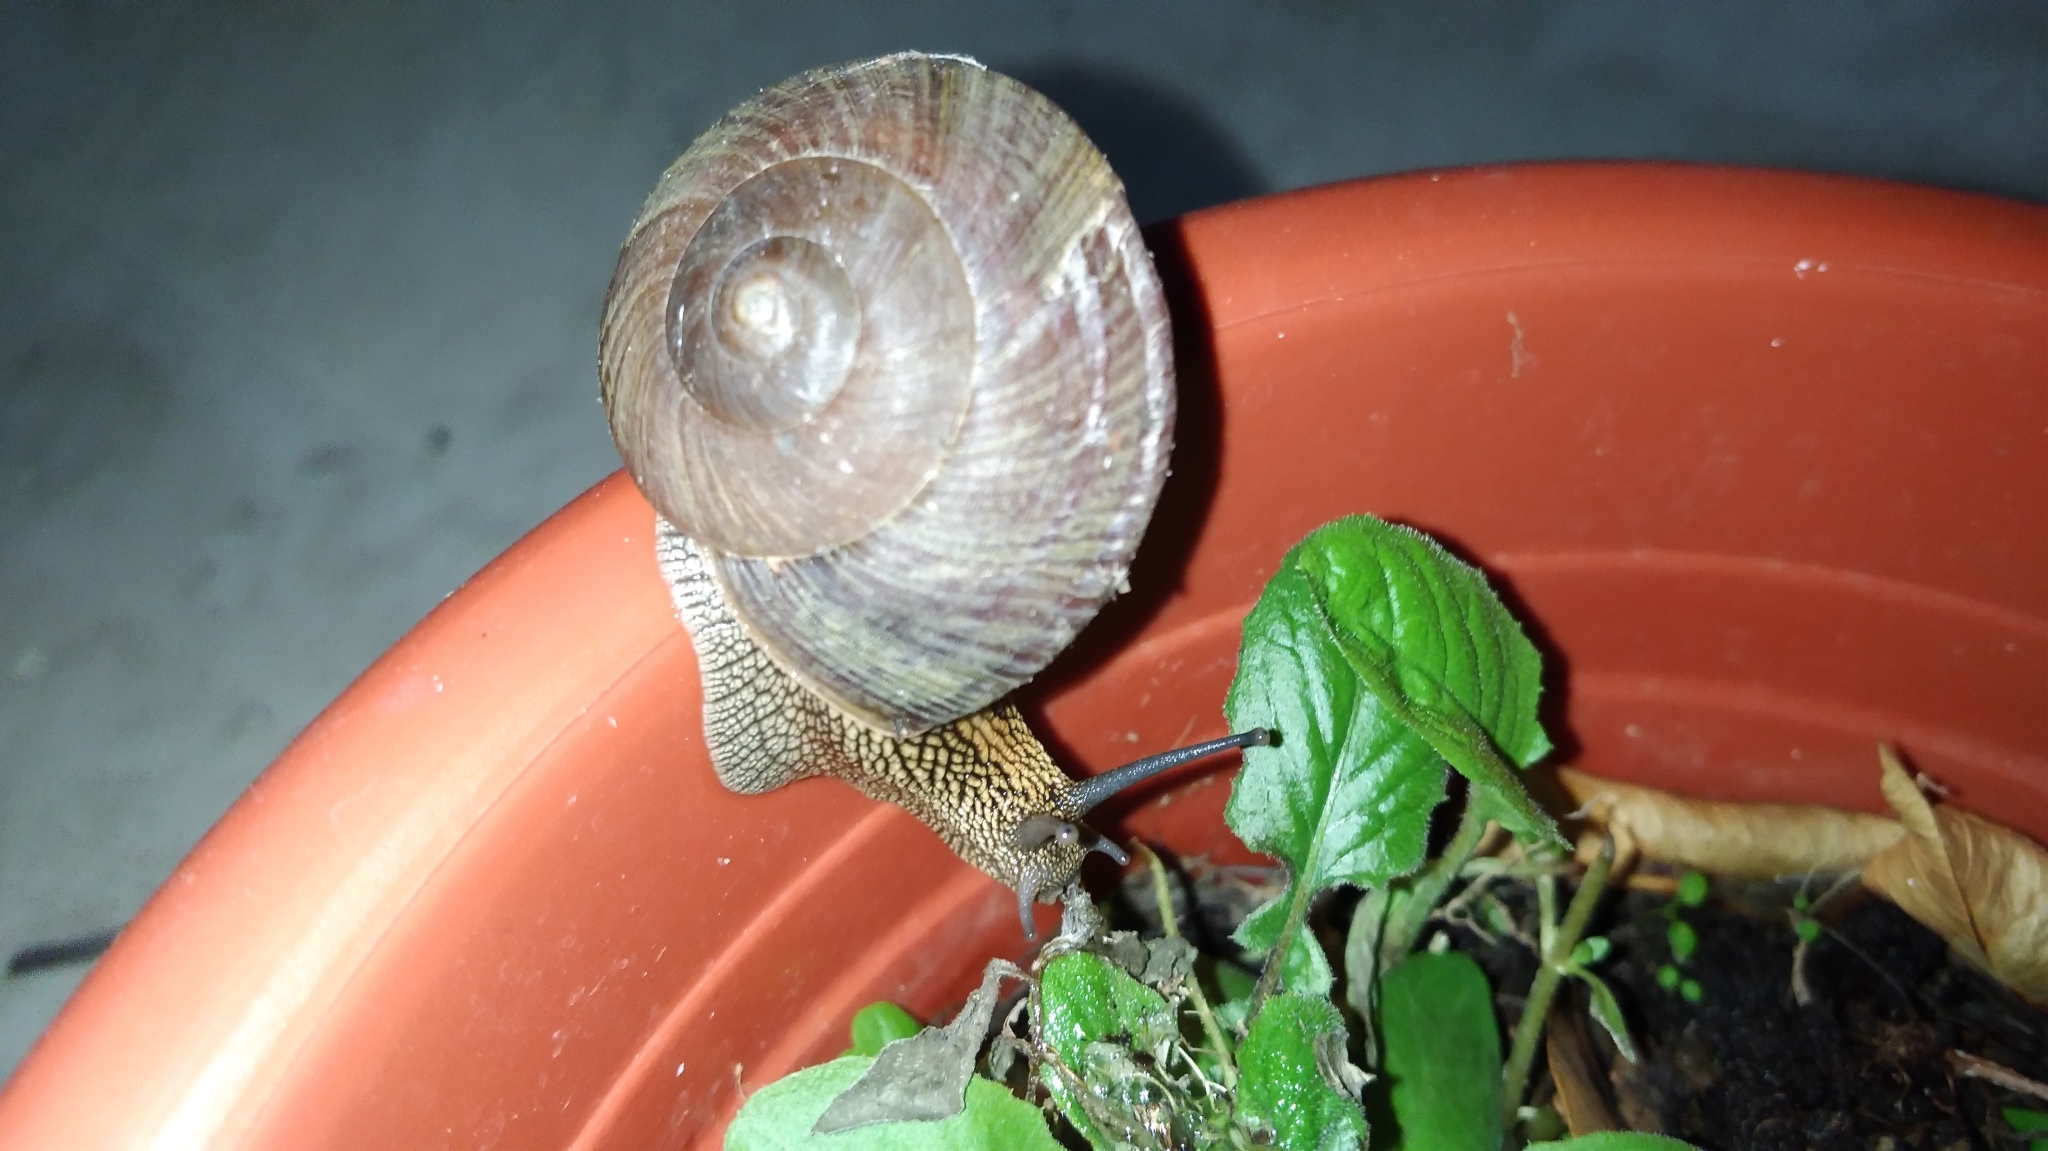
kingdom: Animalia
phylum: Mollusca
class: Gastropoda
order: Stylommatophora
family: Camaenidae
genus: Nesiohelix
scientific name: Nesiohelix swinhoei
